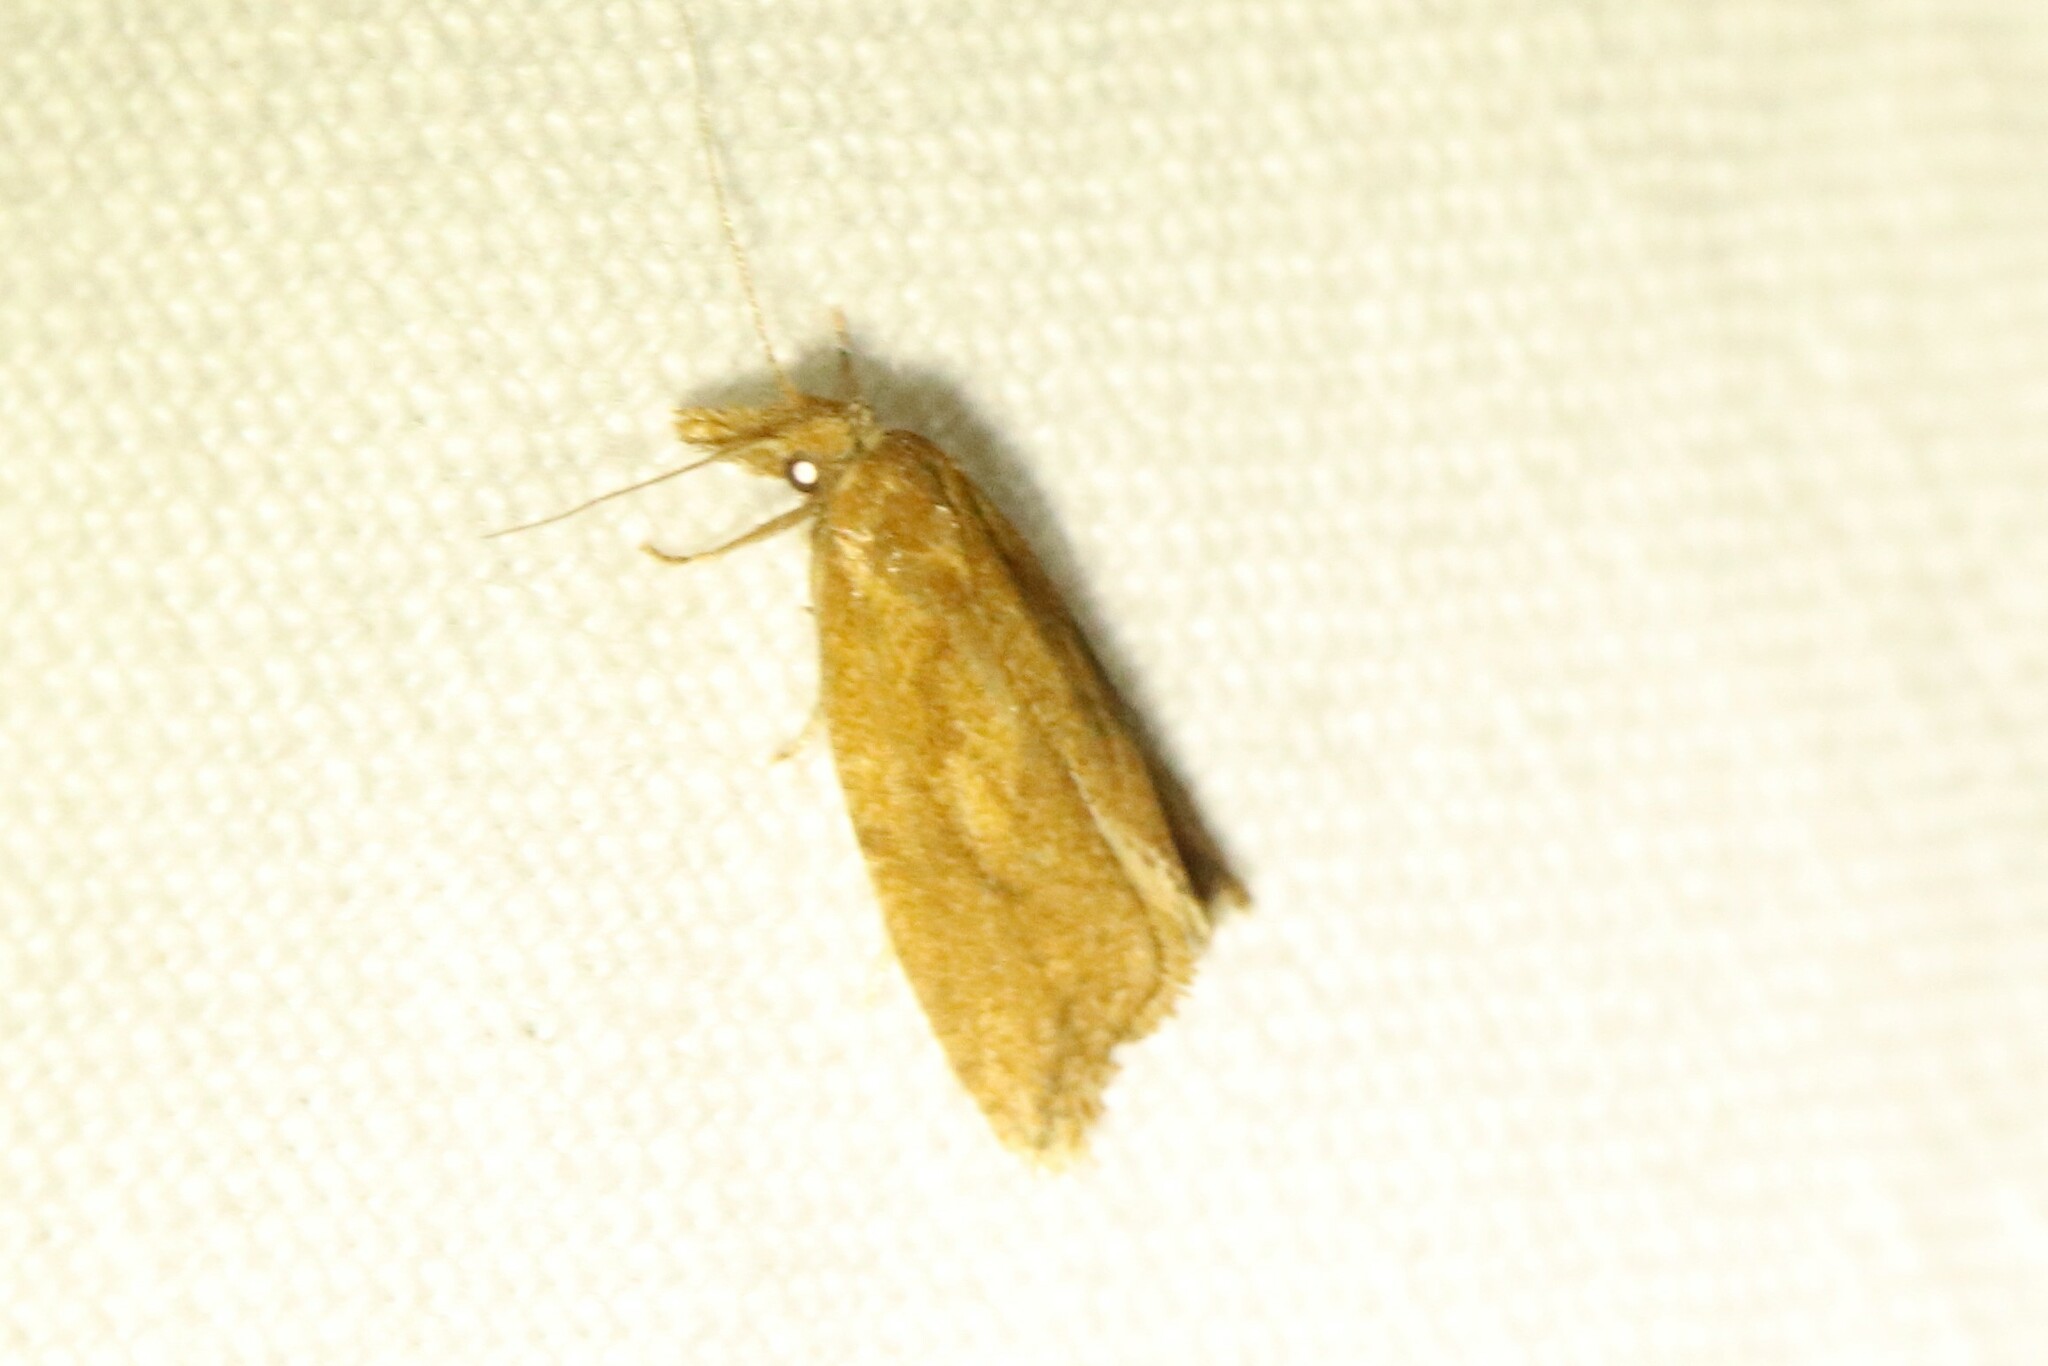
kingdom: Animalia
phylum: Arthropoda
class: Insecta
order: Lepidoptera
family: Tortricidae
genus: Aethes
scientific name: Aethes biscana
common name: Reddish aethes
